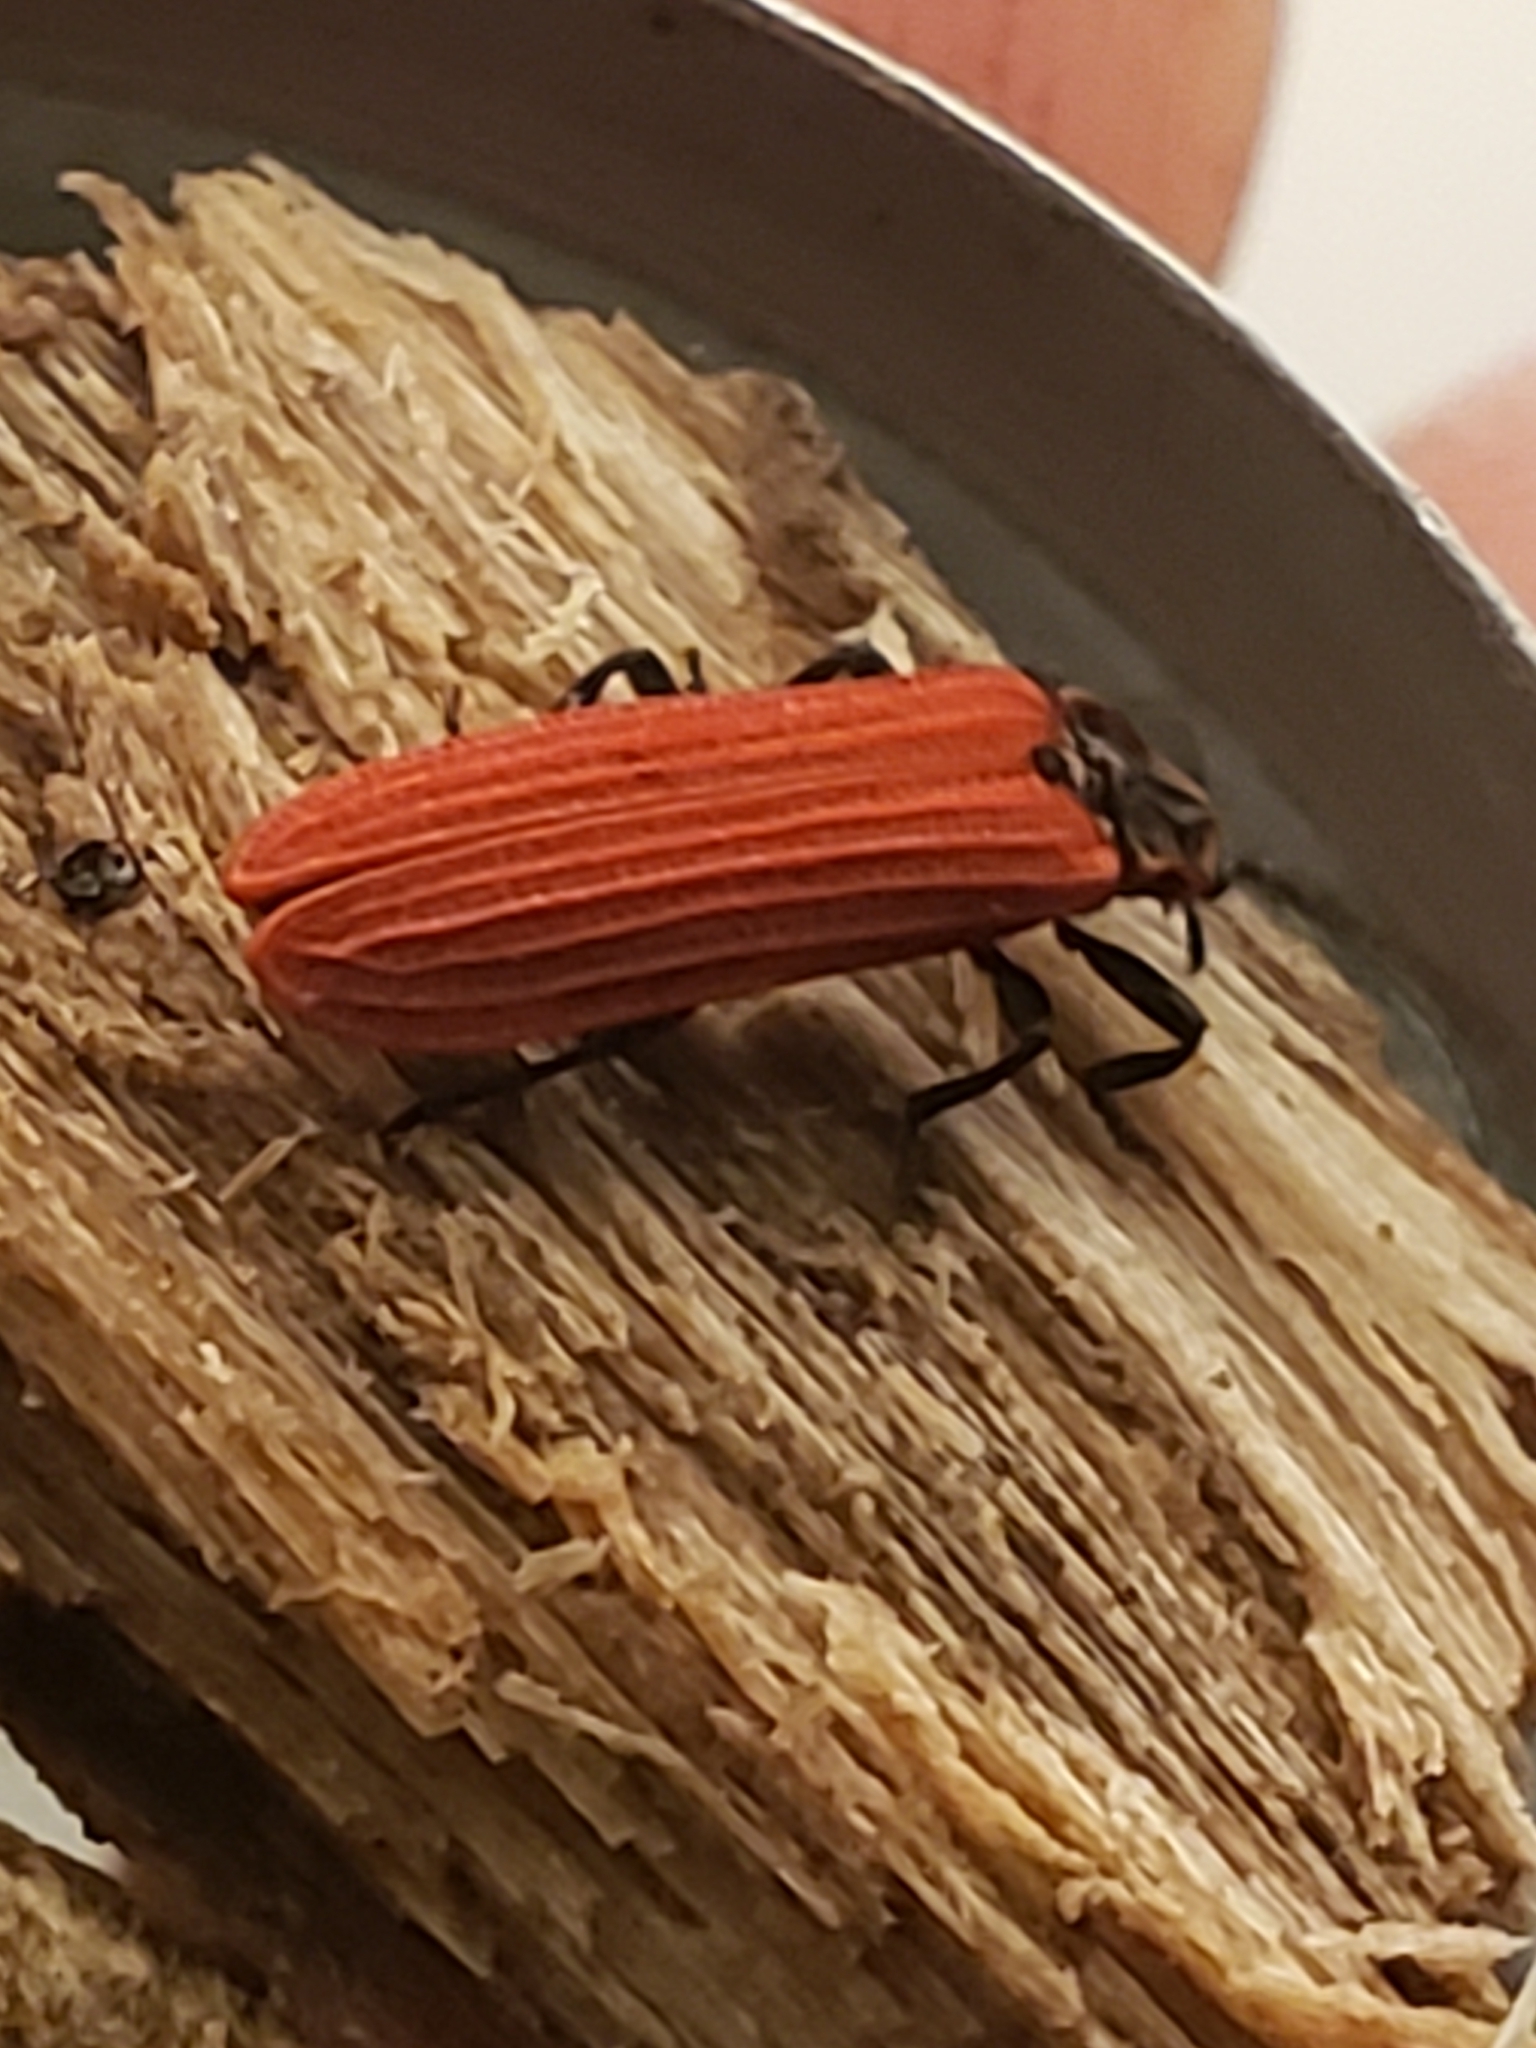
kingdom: Animalia
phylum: Arthropoda
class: Insecta
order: Coleoptera
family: Lycidae
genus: Dictyoptera
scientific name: Dictyoptera aurora
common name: Golden net-winged beetle
